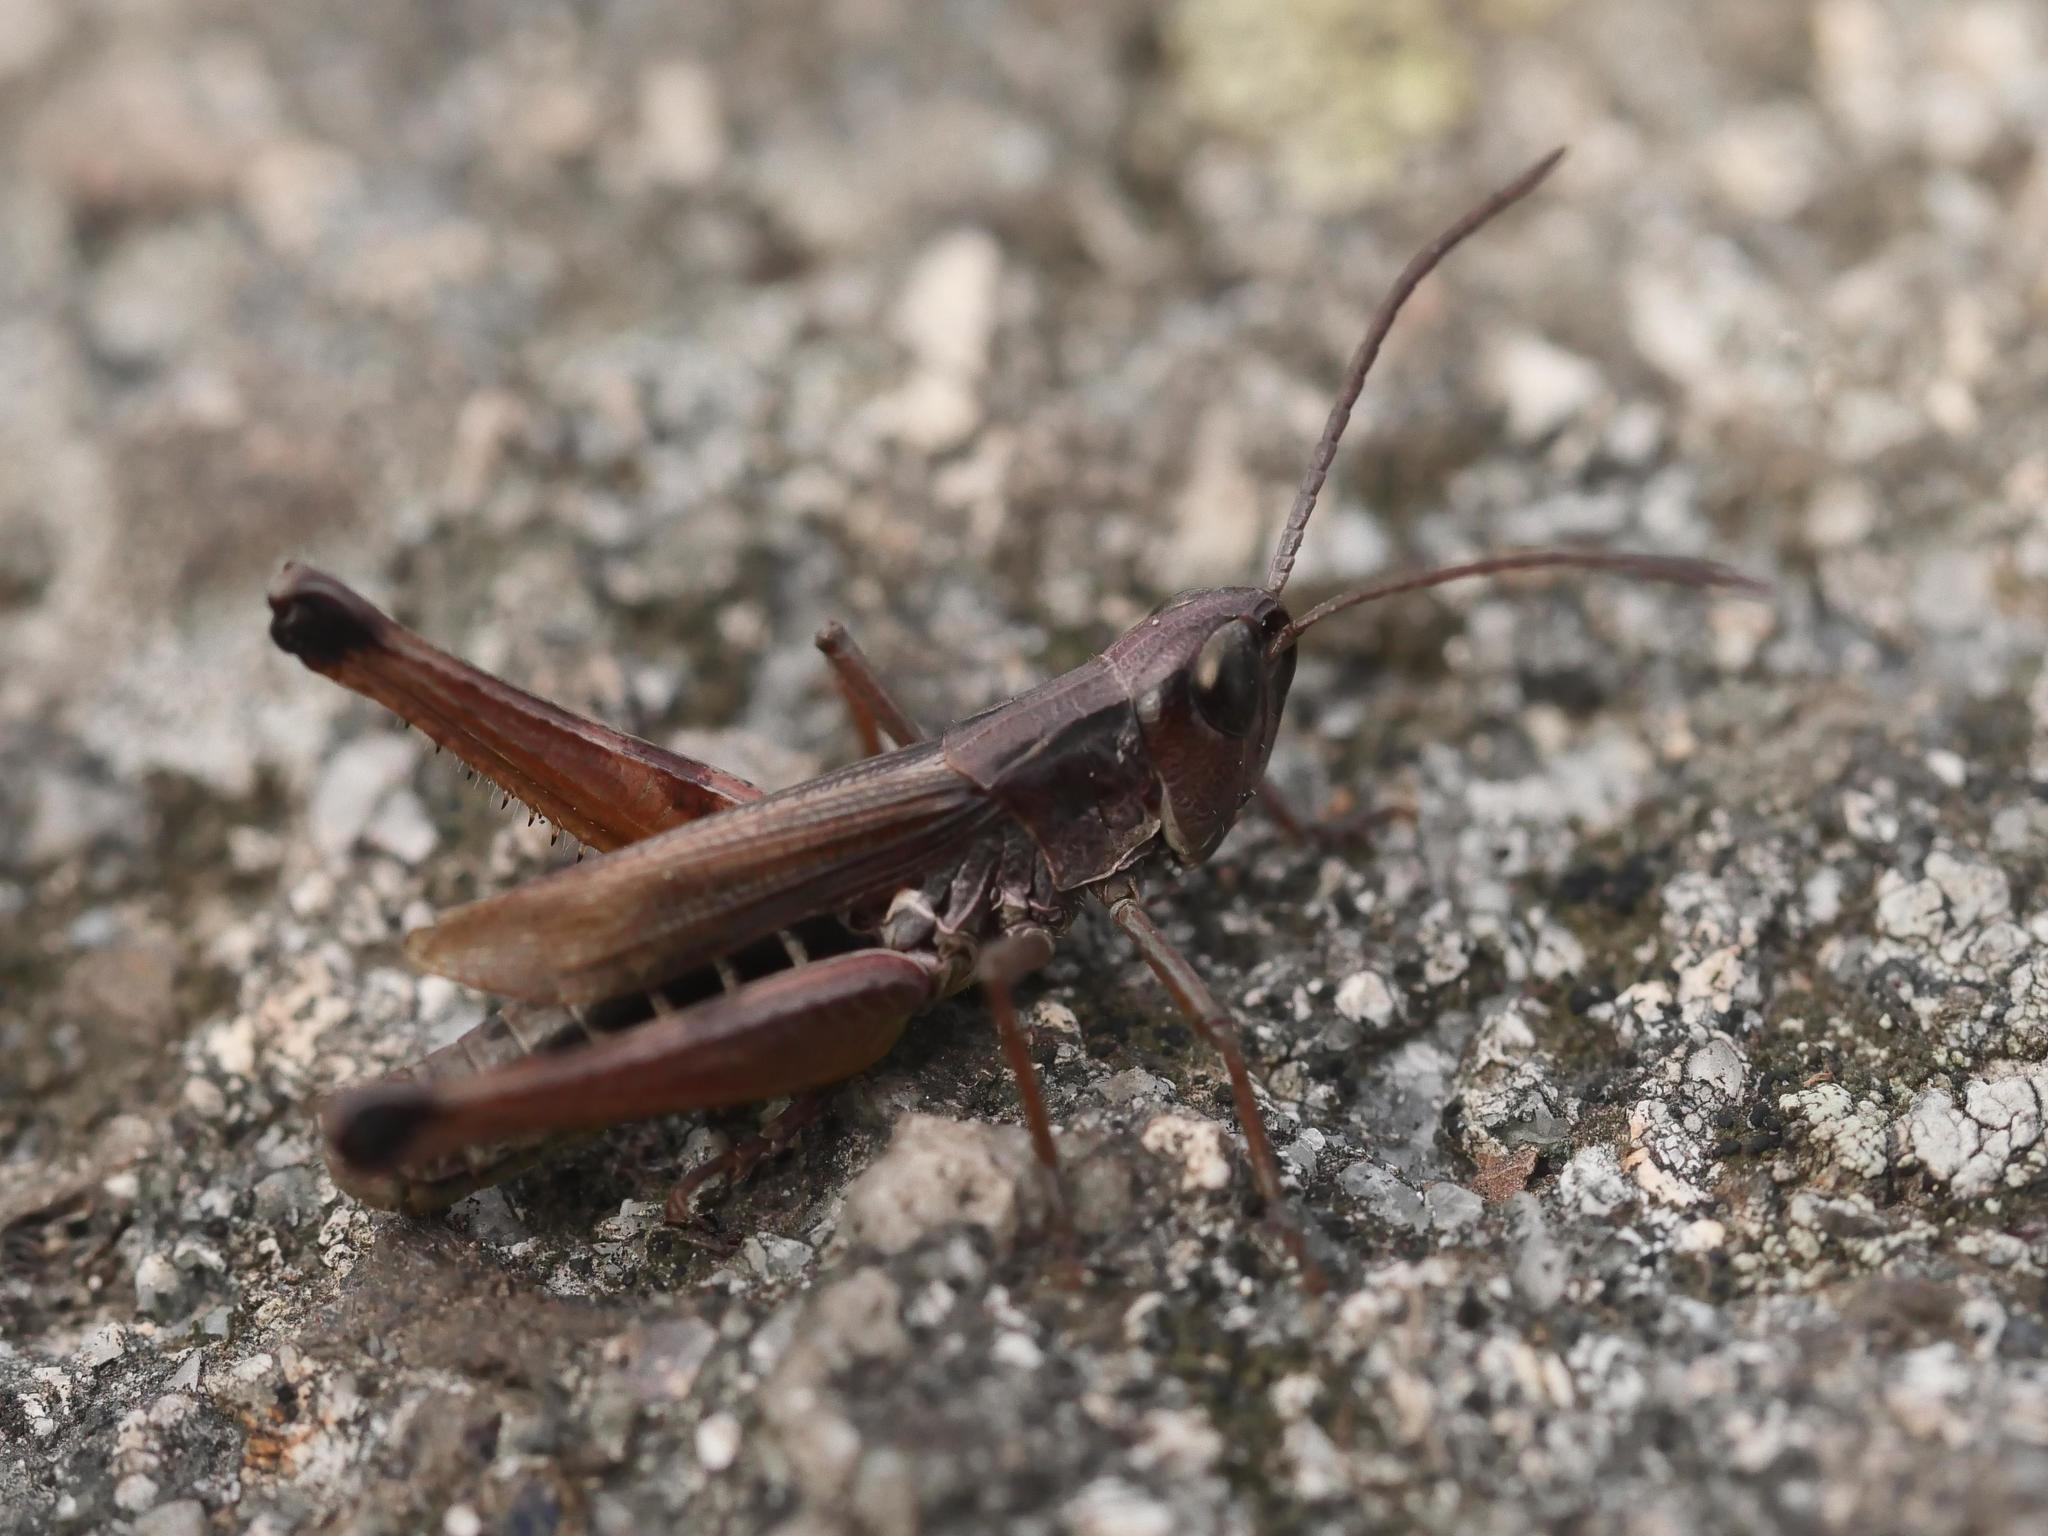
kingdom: Animalia
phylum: Arthropoda
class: Insecta
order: Orthoptera
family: Acrididae
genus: Pseudochorthippus
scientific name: Pseudochorthippus curtipennis
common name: Marsh meadow grasshopper
